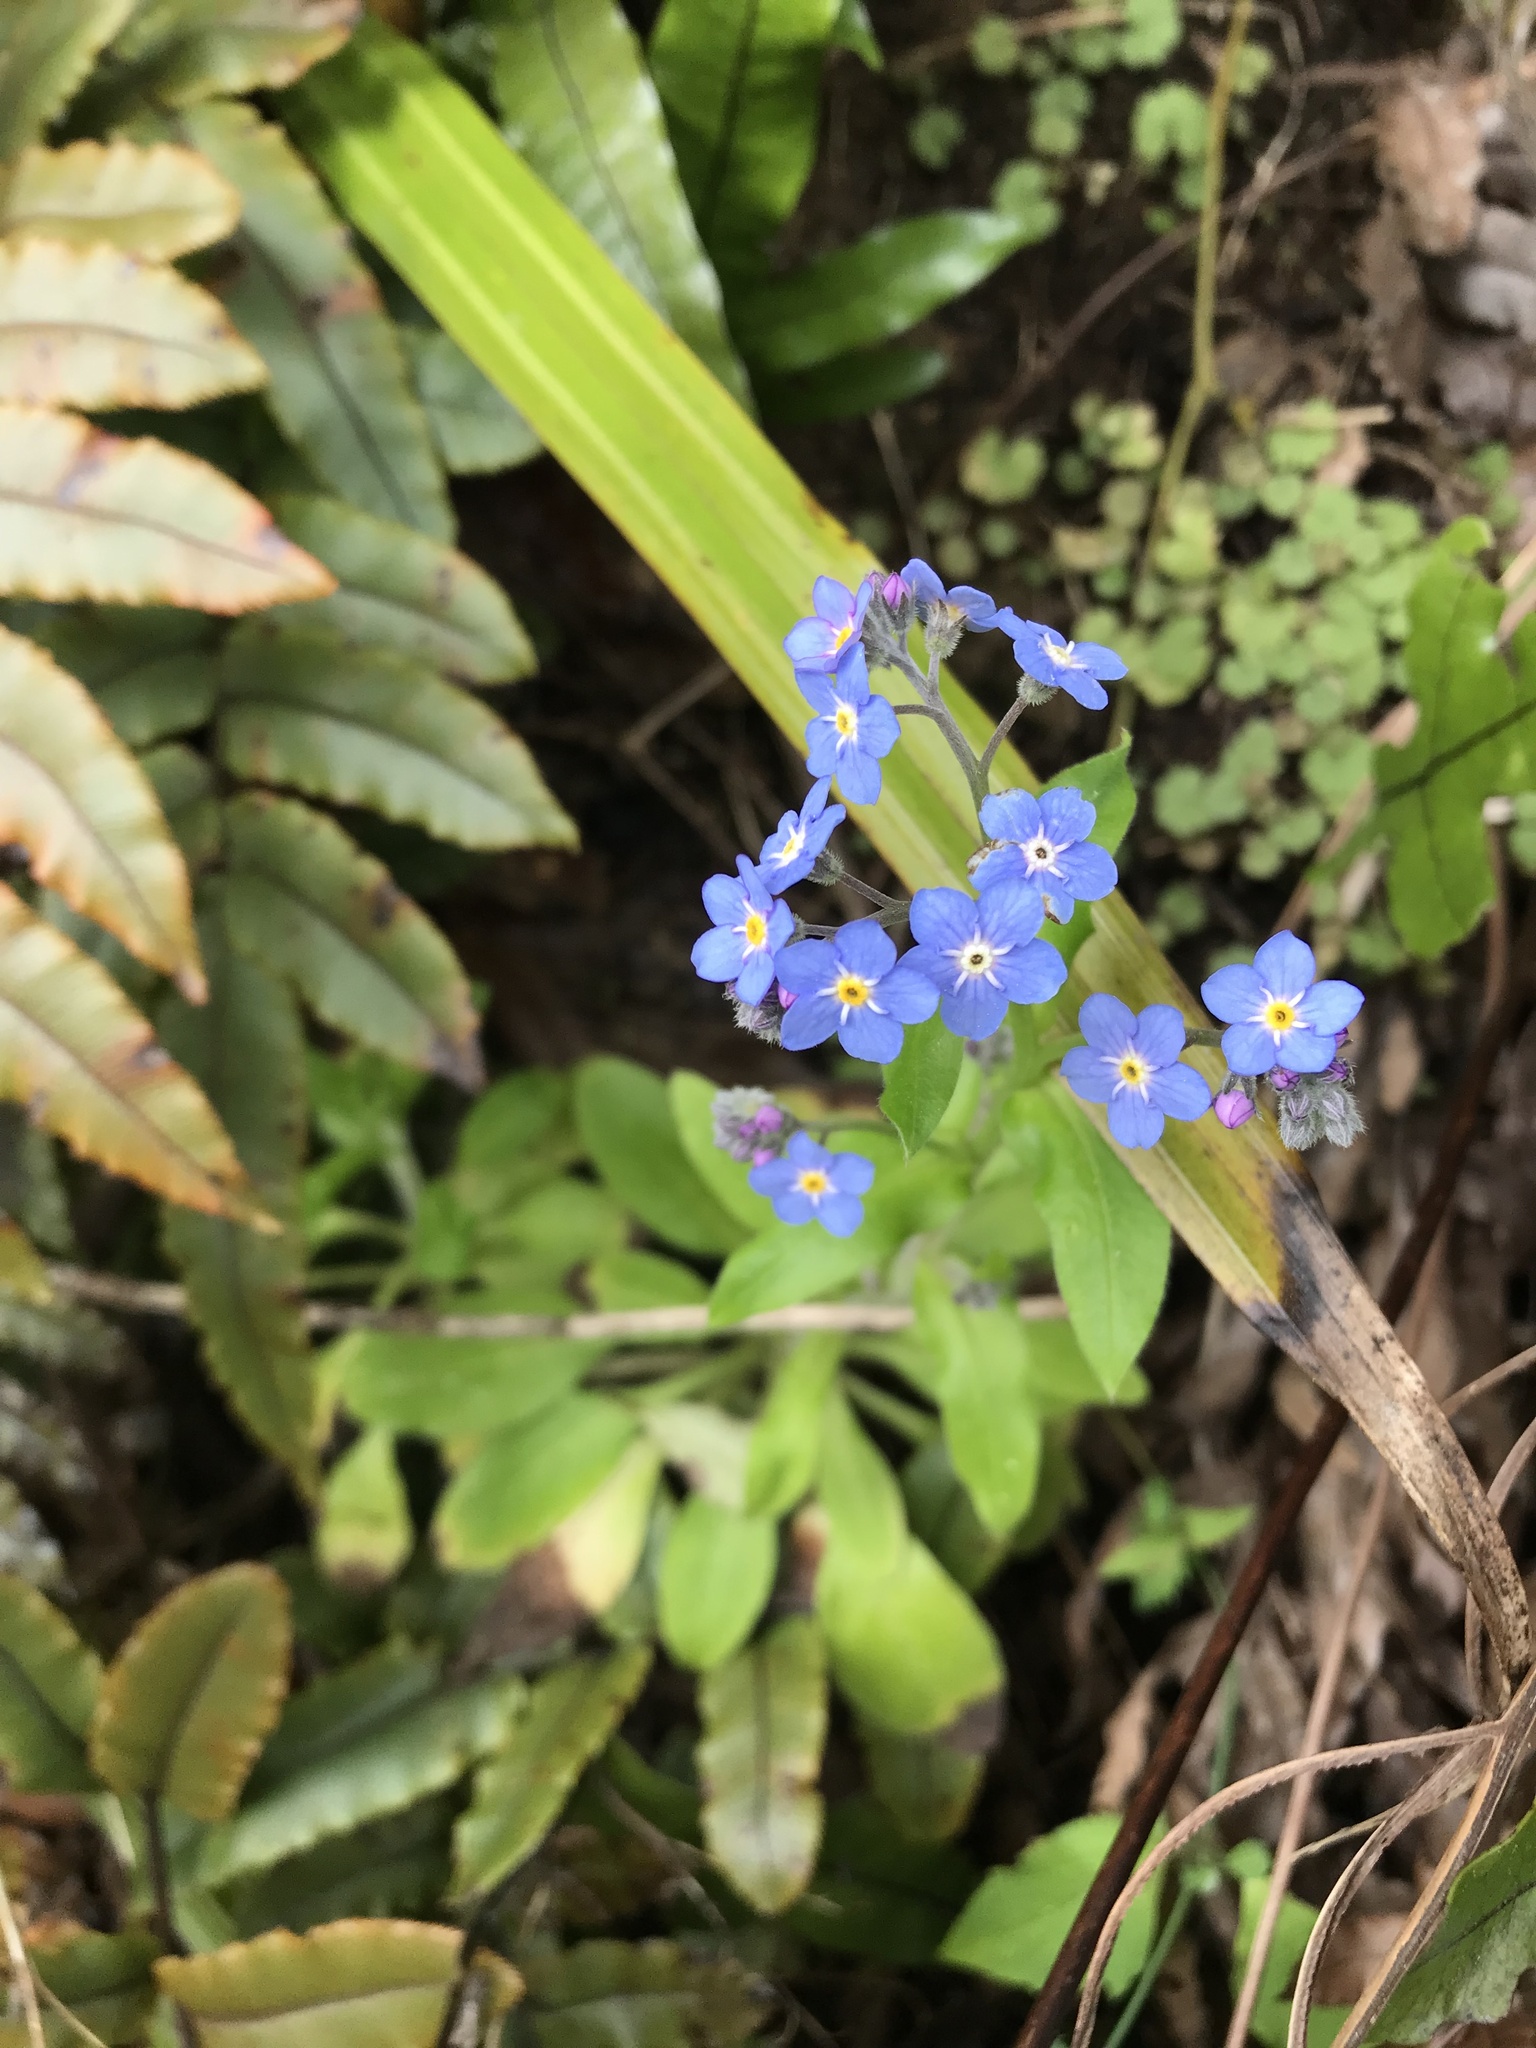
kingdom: Plantae
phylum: Tracheophyta
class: Magnoliopsida
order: Boraginales
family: Boraginaceae
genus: Myosotis
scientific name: Myosotis sylvatica
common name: Wood forget-me-not
